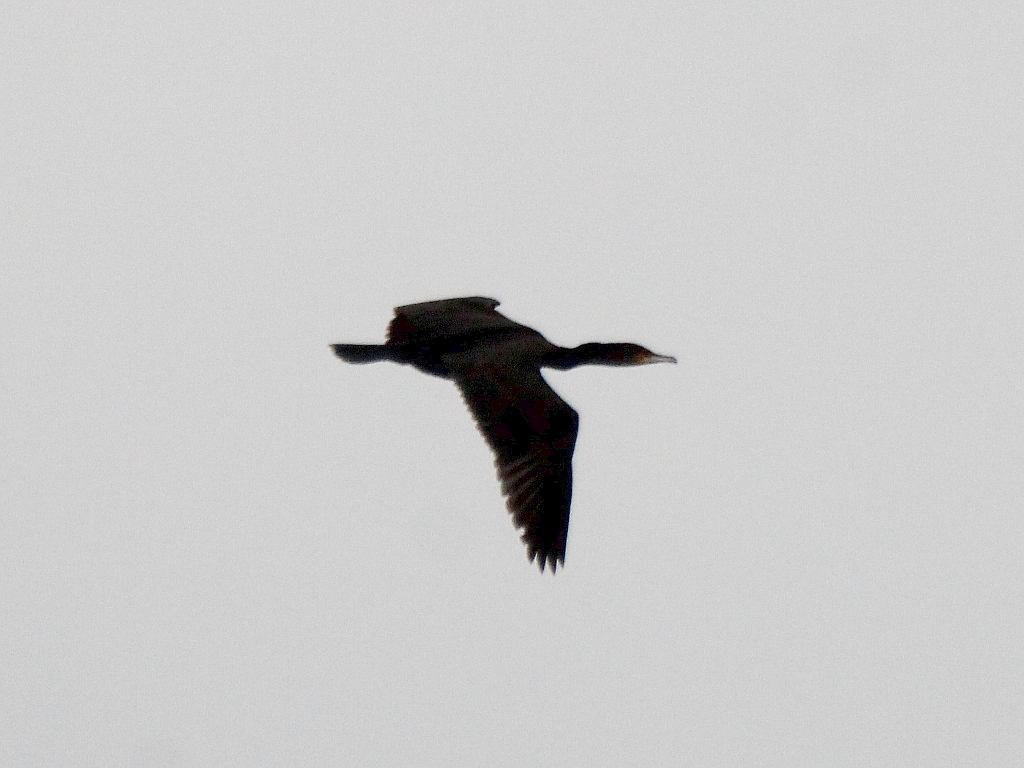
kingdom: Animalia
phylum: Chordata
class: Aves
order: Suliformes
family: Phalacrocoracidae
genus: Phalacrocorax
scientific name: Phalacrocorax carbo
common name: Great cormorant
